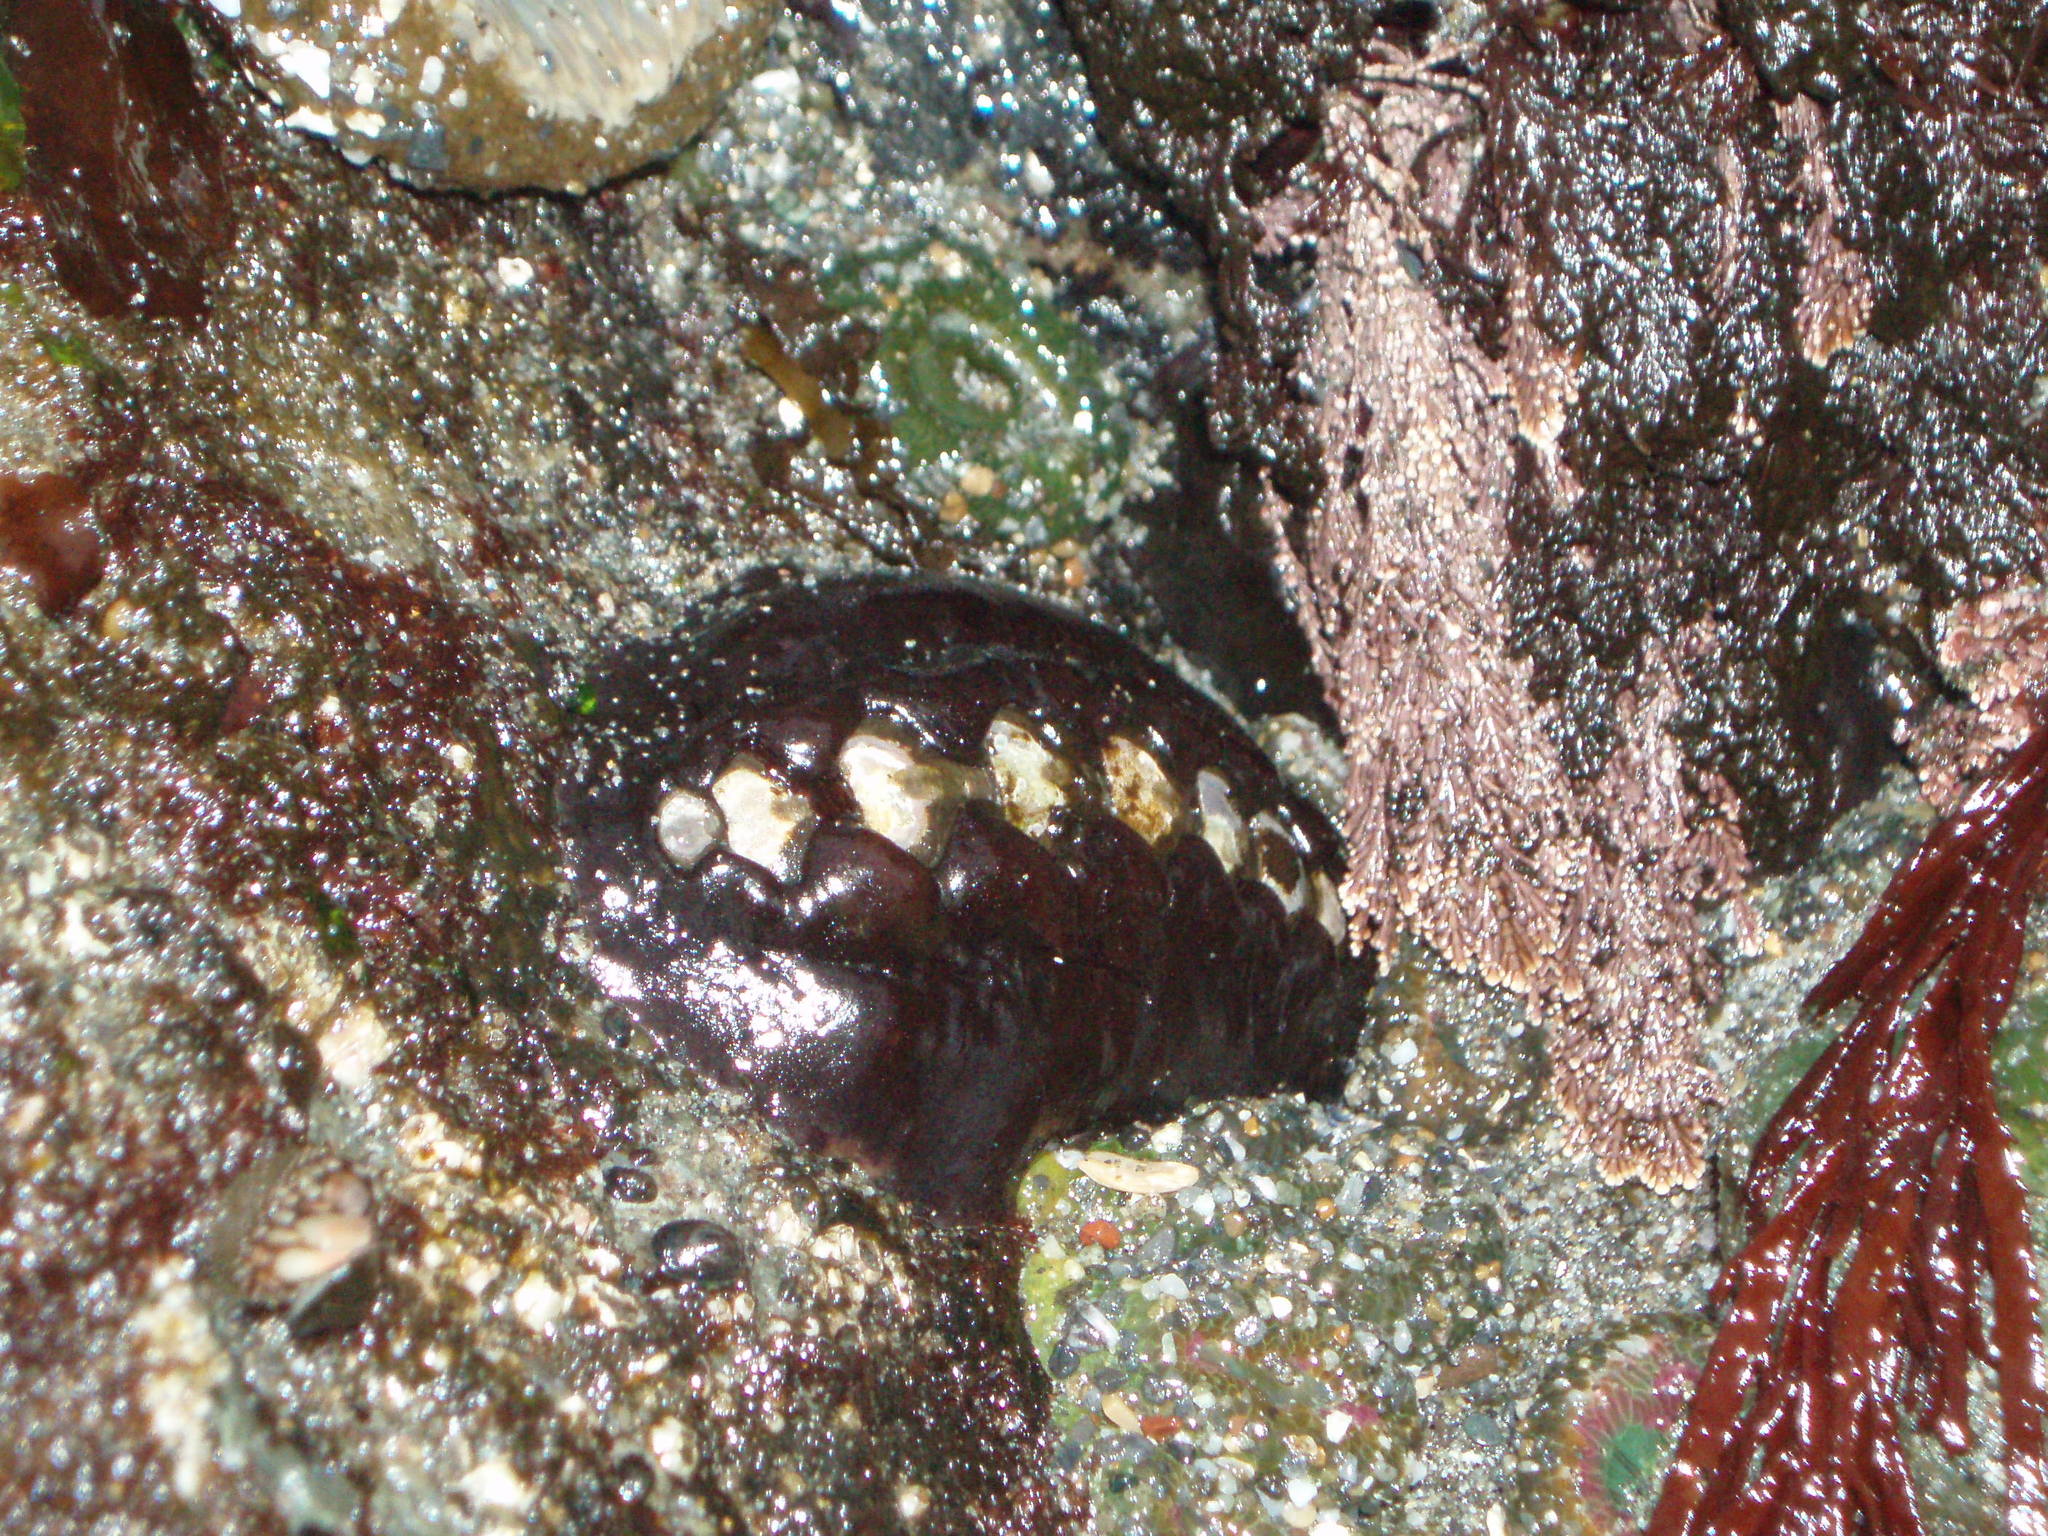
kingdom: Animalia
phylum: Mollusca
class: Polyplacophora
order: Chitonida
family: Mopaliidae
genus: Katharina
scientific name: Katharina tunicata
